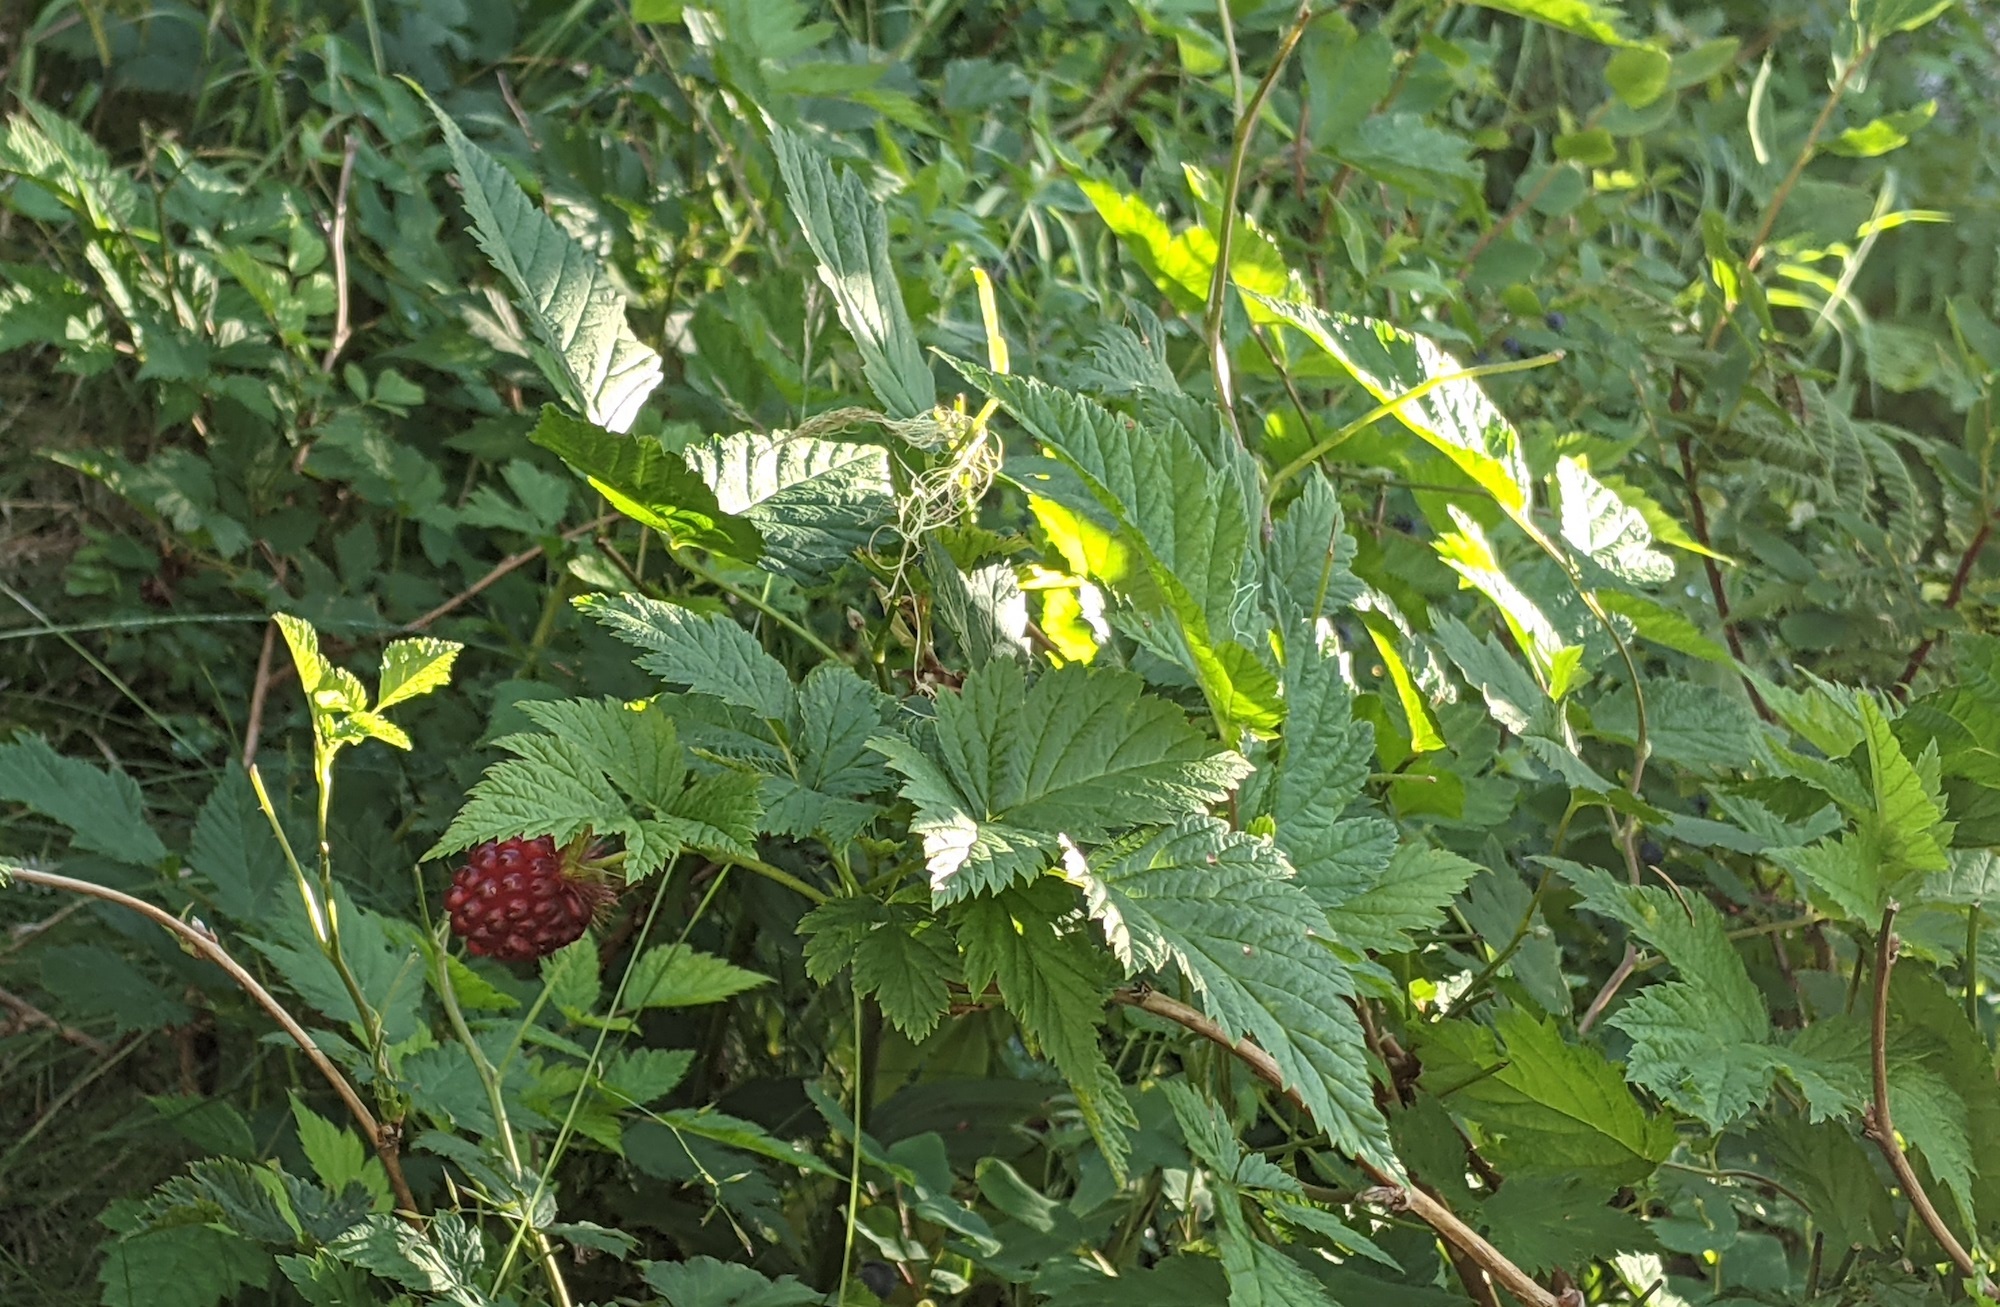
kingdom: Plantae
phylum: Tracheophyta
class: Magnoliopsida
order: Rosales
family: Rosaceae
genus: Rubus
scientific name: Rubus spectabilis
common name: Salmonberry
